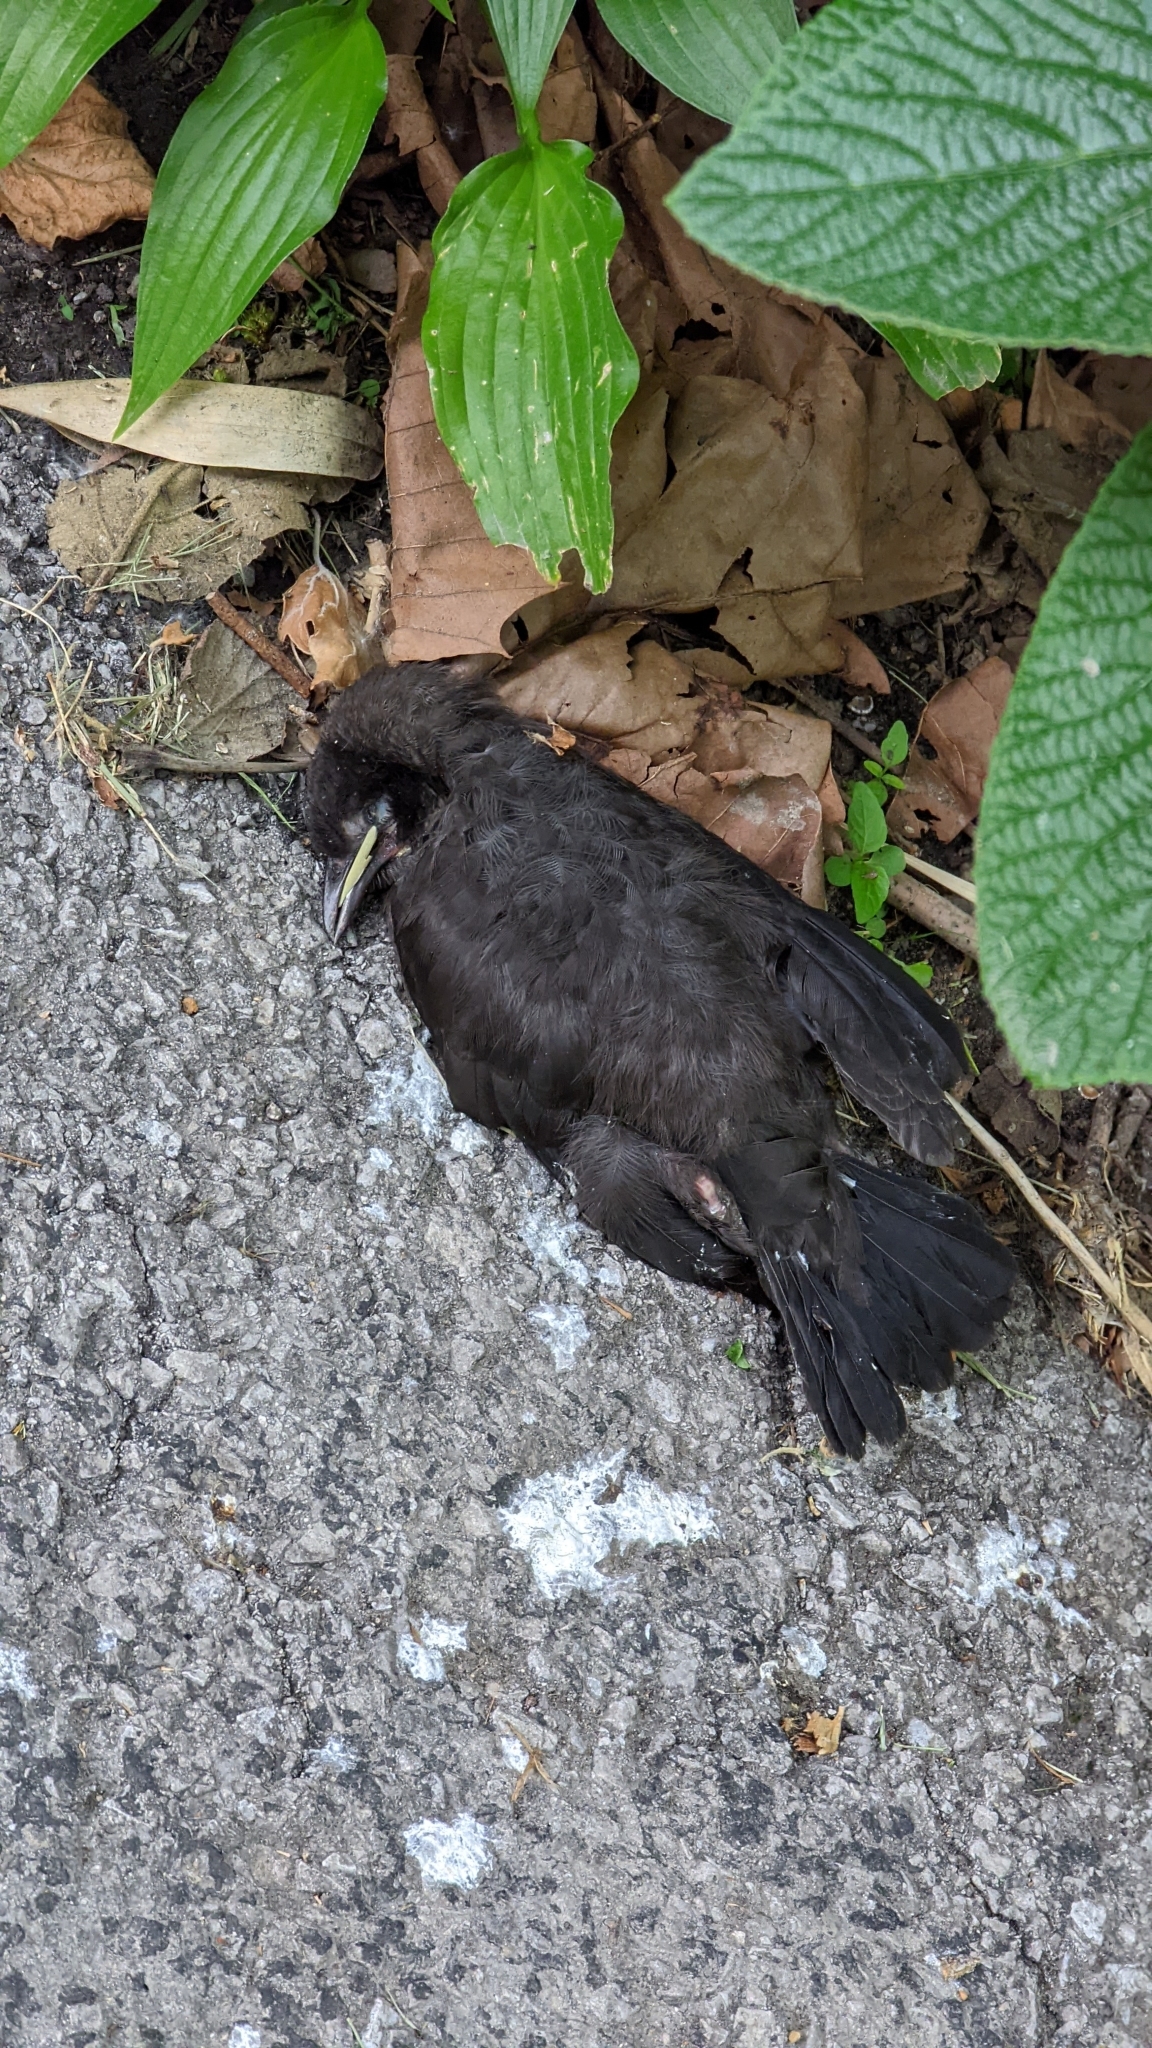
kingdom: Animalia
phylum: Chordata
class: Aves
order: Passeriformes
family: Icteridae
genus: Quiscalus
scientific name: Quiscalus quiscula
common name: Common grackle
